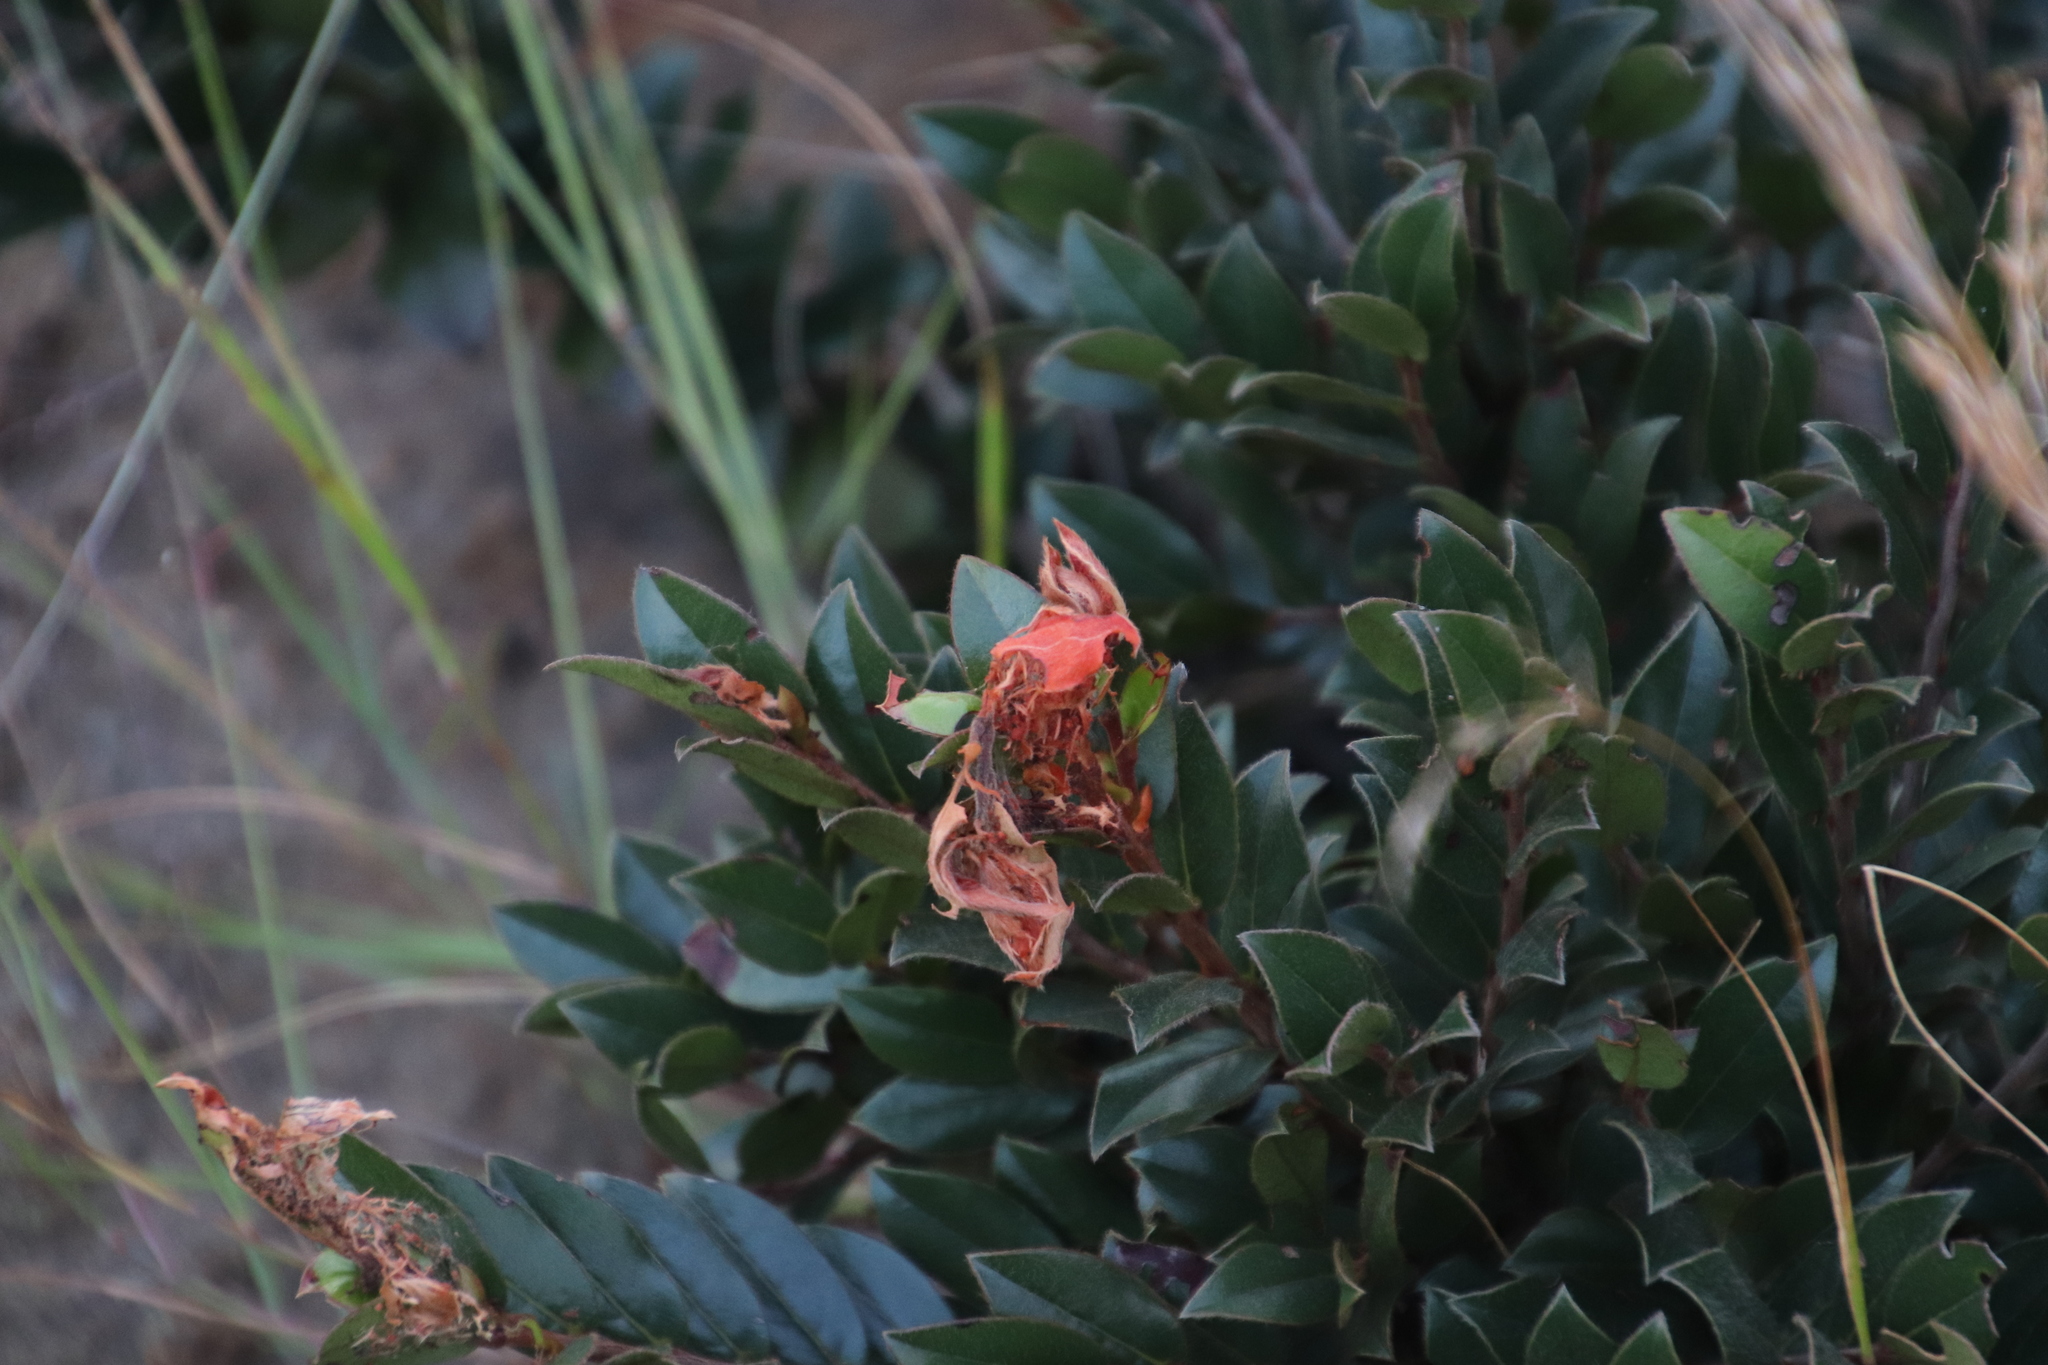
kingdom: Plantae
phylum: Tracheophyta
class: Magnoliopsida
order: Ericales
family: Ebenaceae
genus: Diospyros
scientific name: Diospyros whyteana
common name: Bladder-nut
